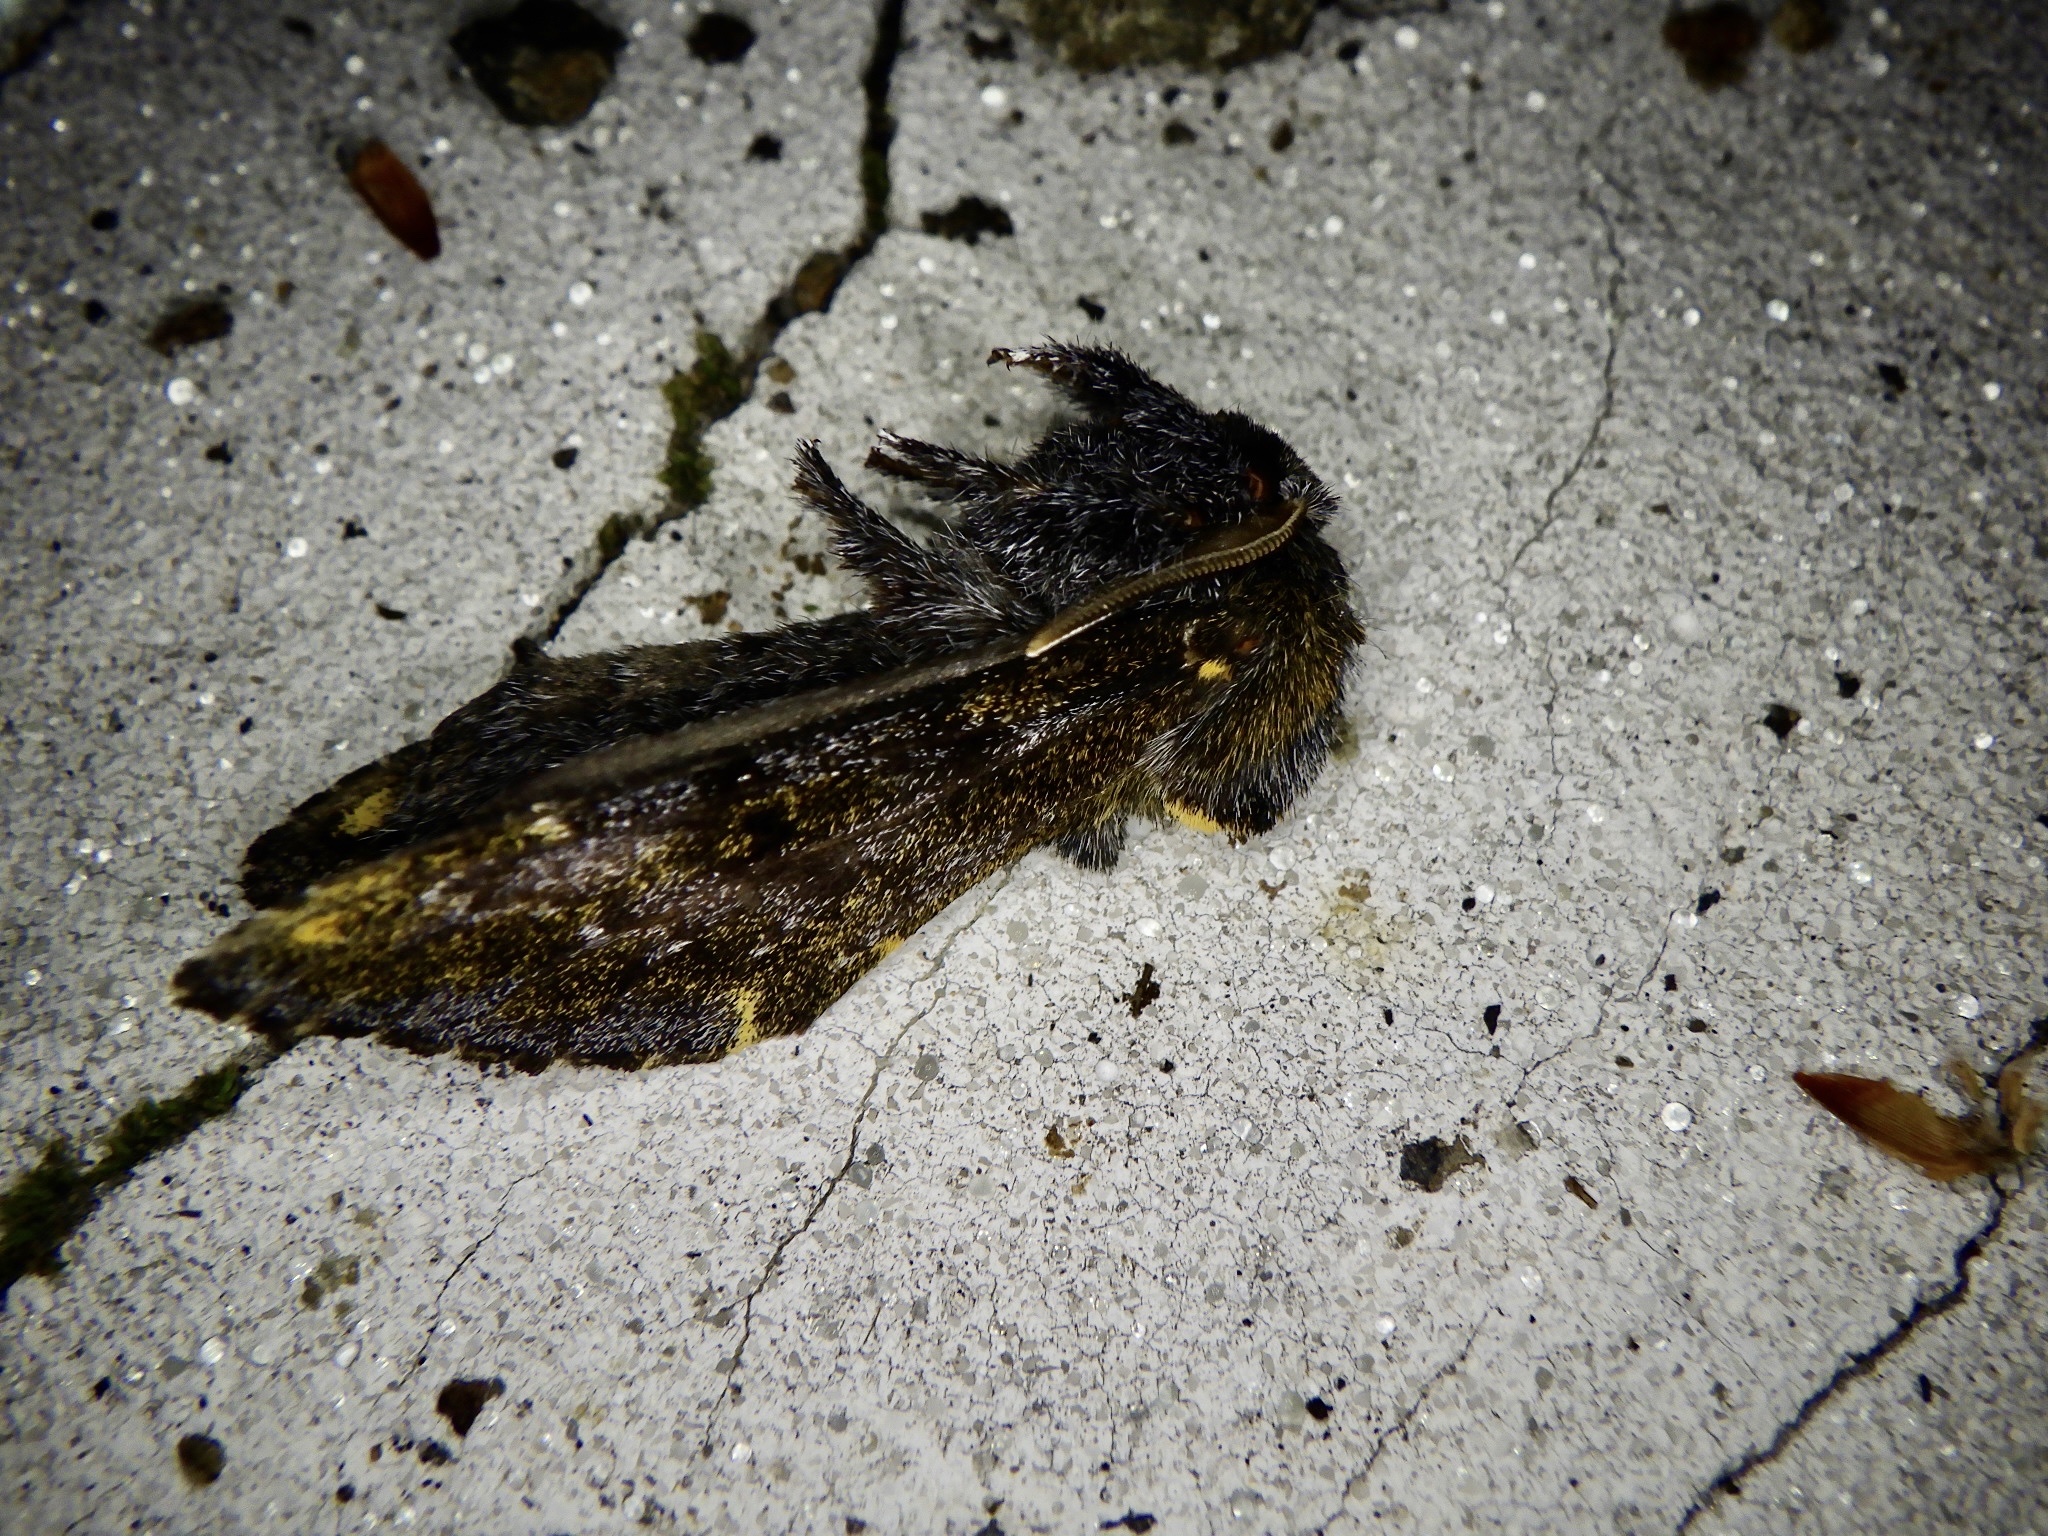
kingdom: Animalia
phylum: Arthropoda
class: Insecta
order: Lepidoptera
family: Notodontidae
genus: Zaranga
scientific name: Zaranga permagna
